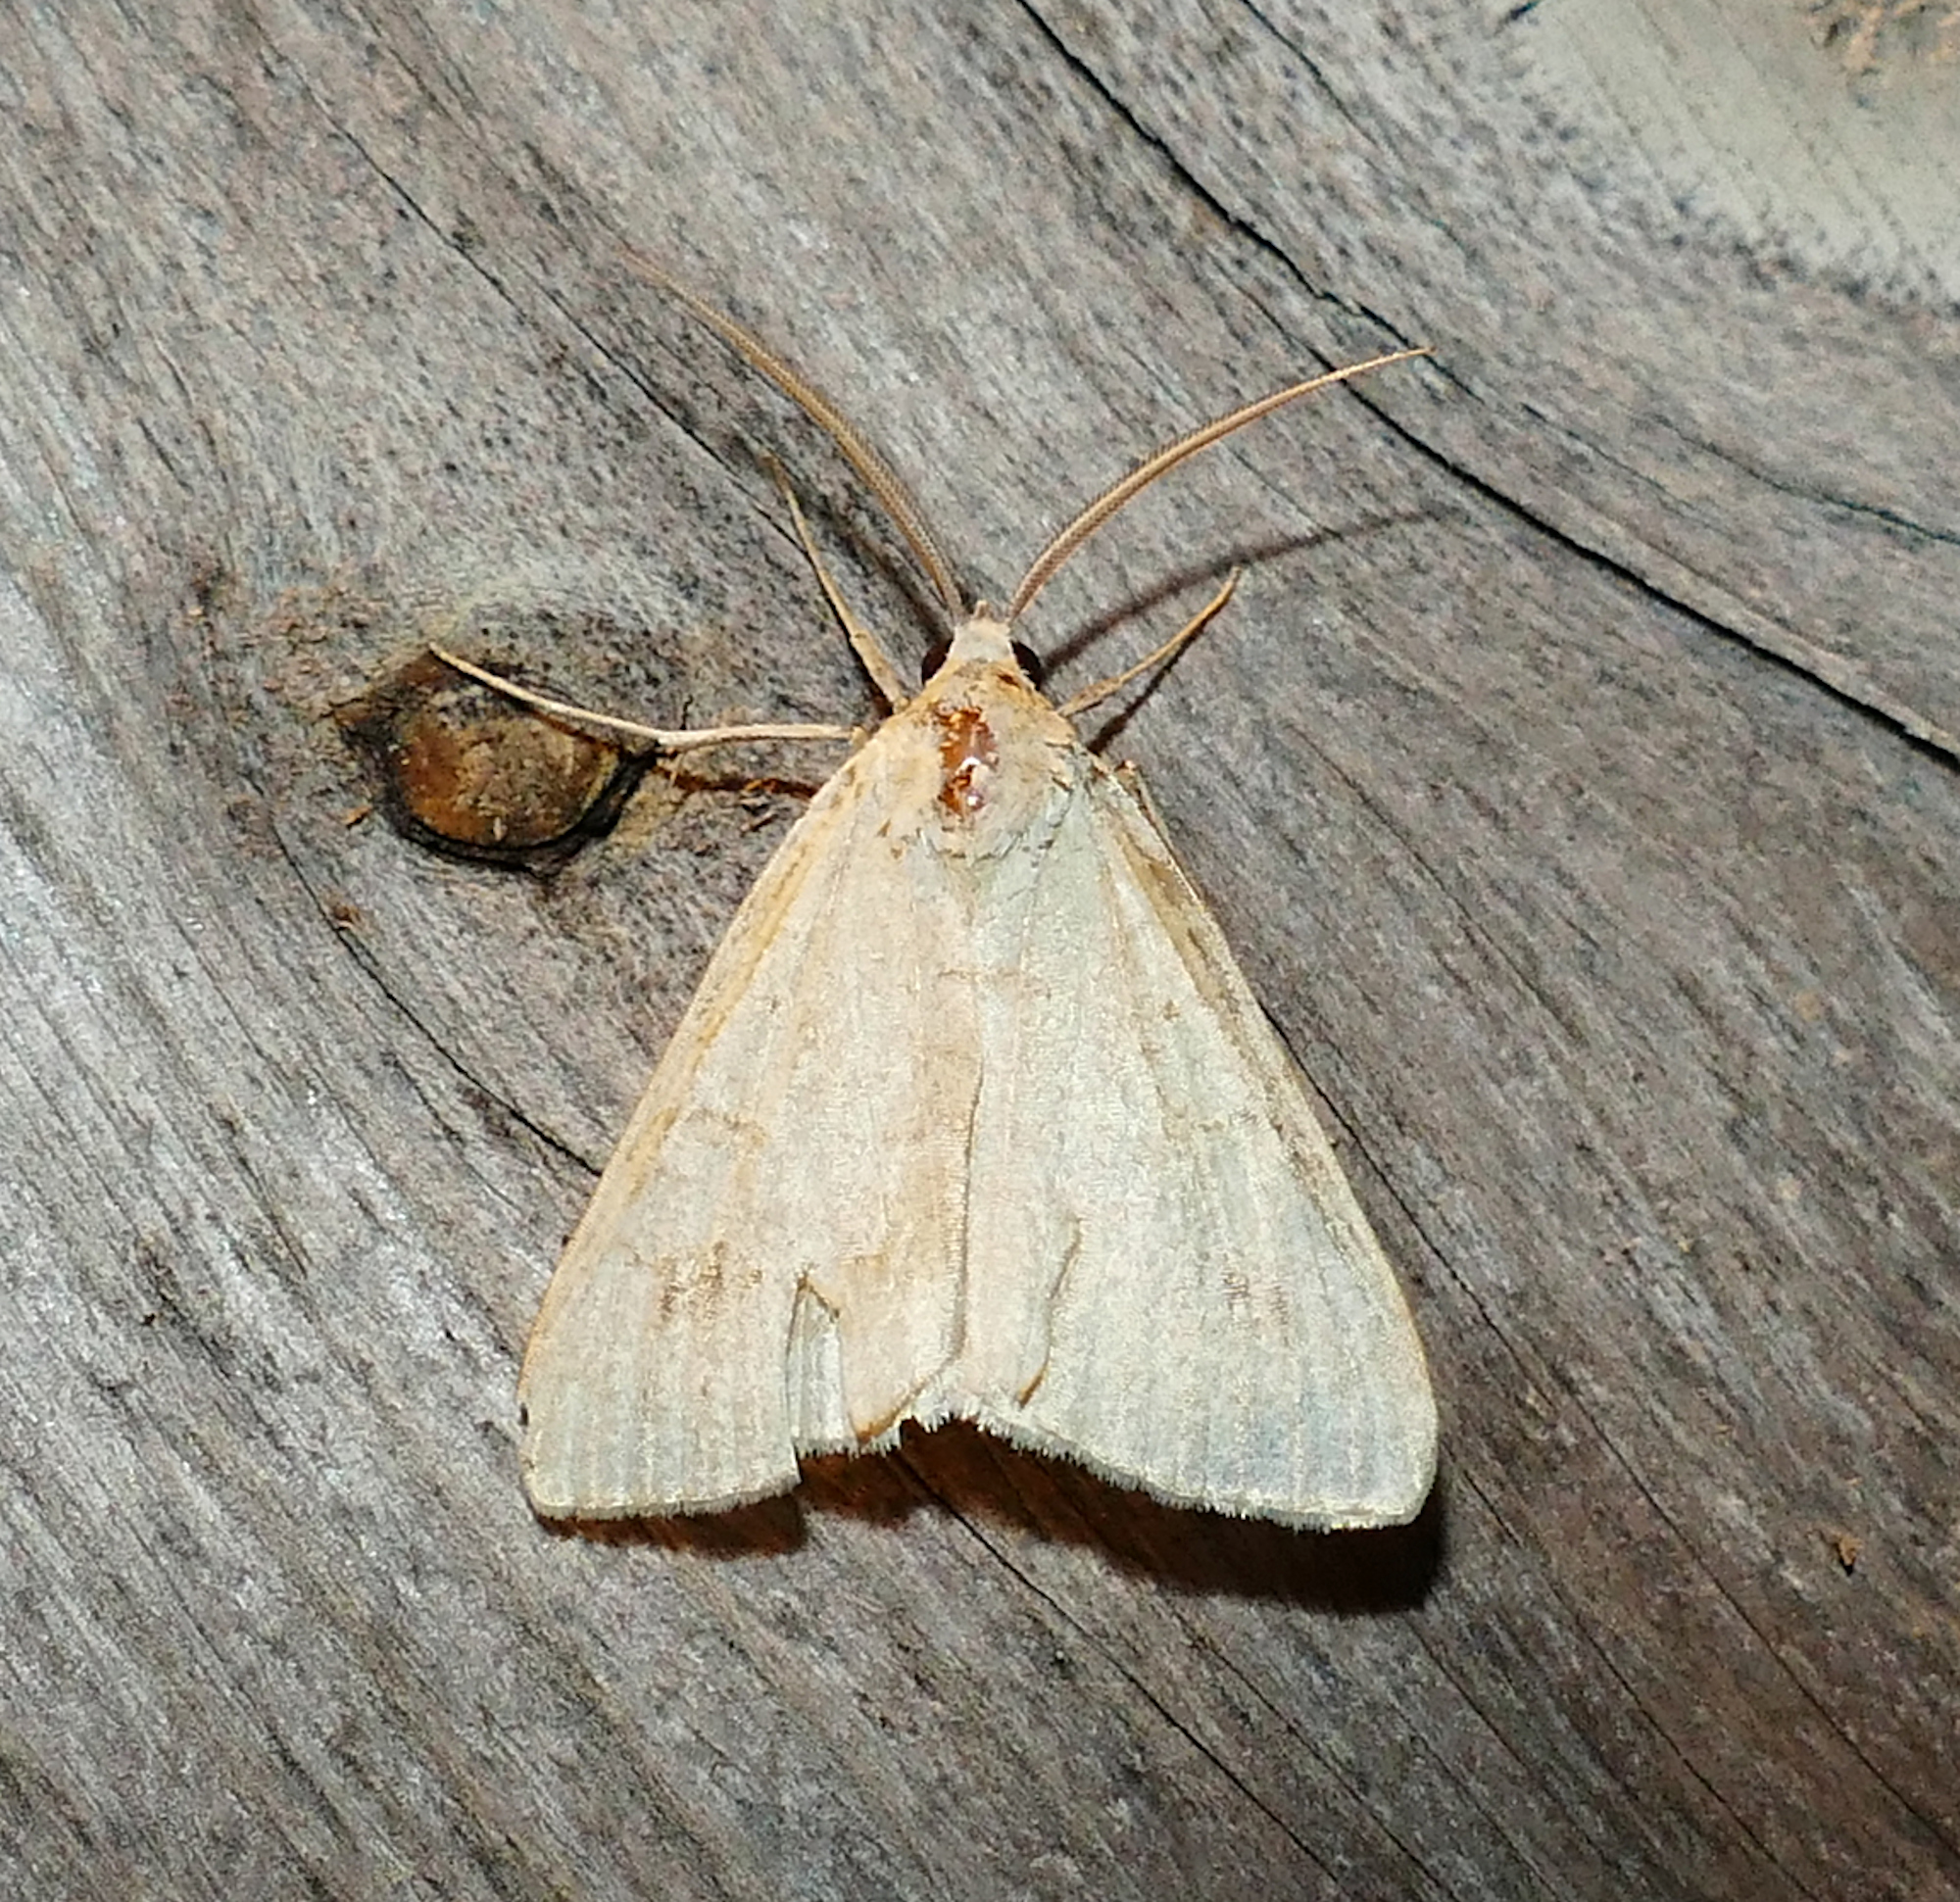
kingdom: Animalia
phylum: Arthropoda
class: Insecta
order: Lepidoptera
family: Erebidae
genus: Caenurgia
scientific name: Caenurgia chloropha
